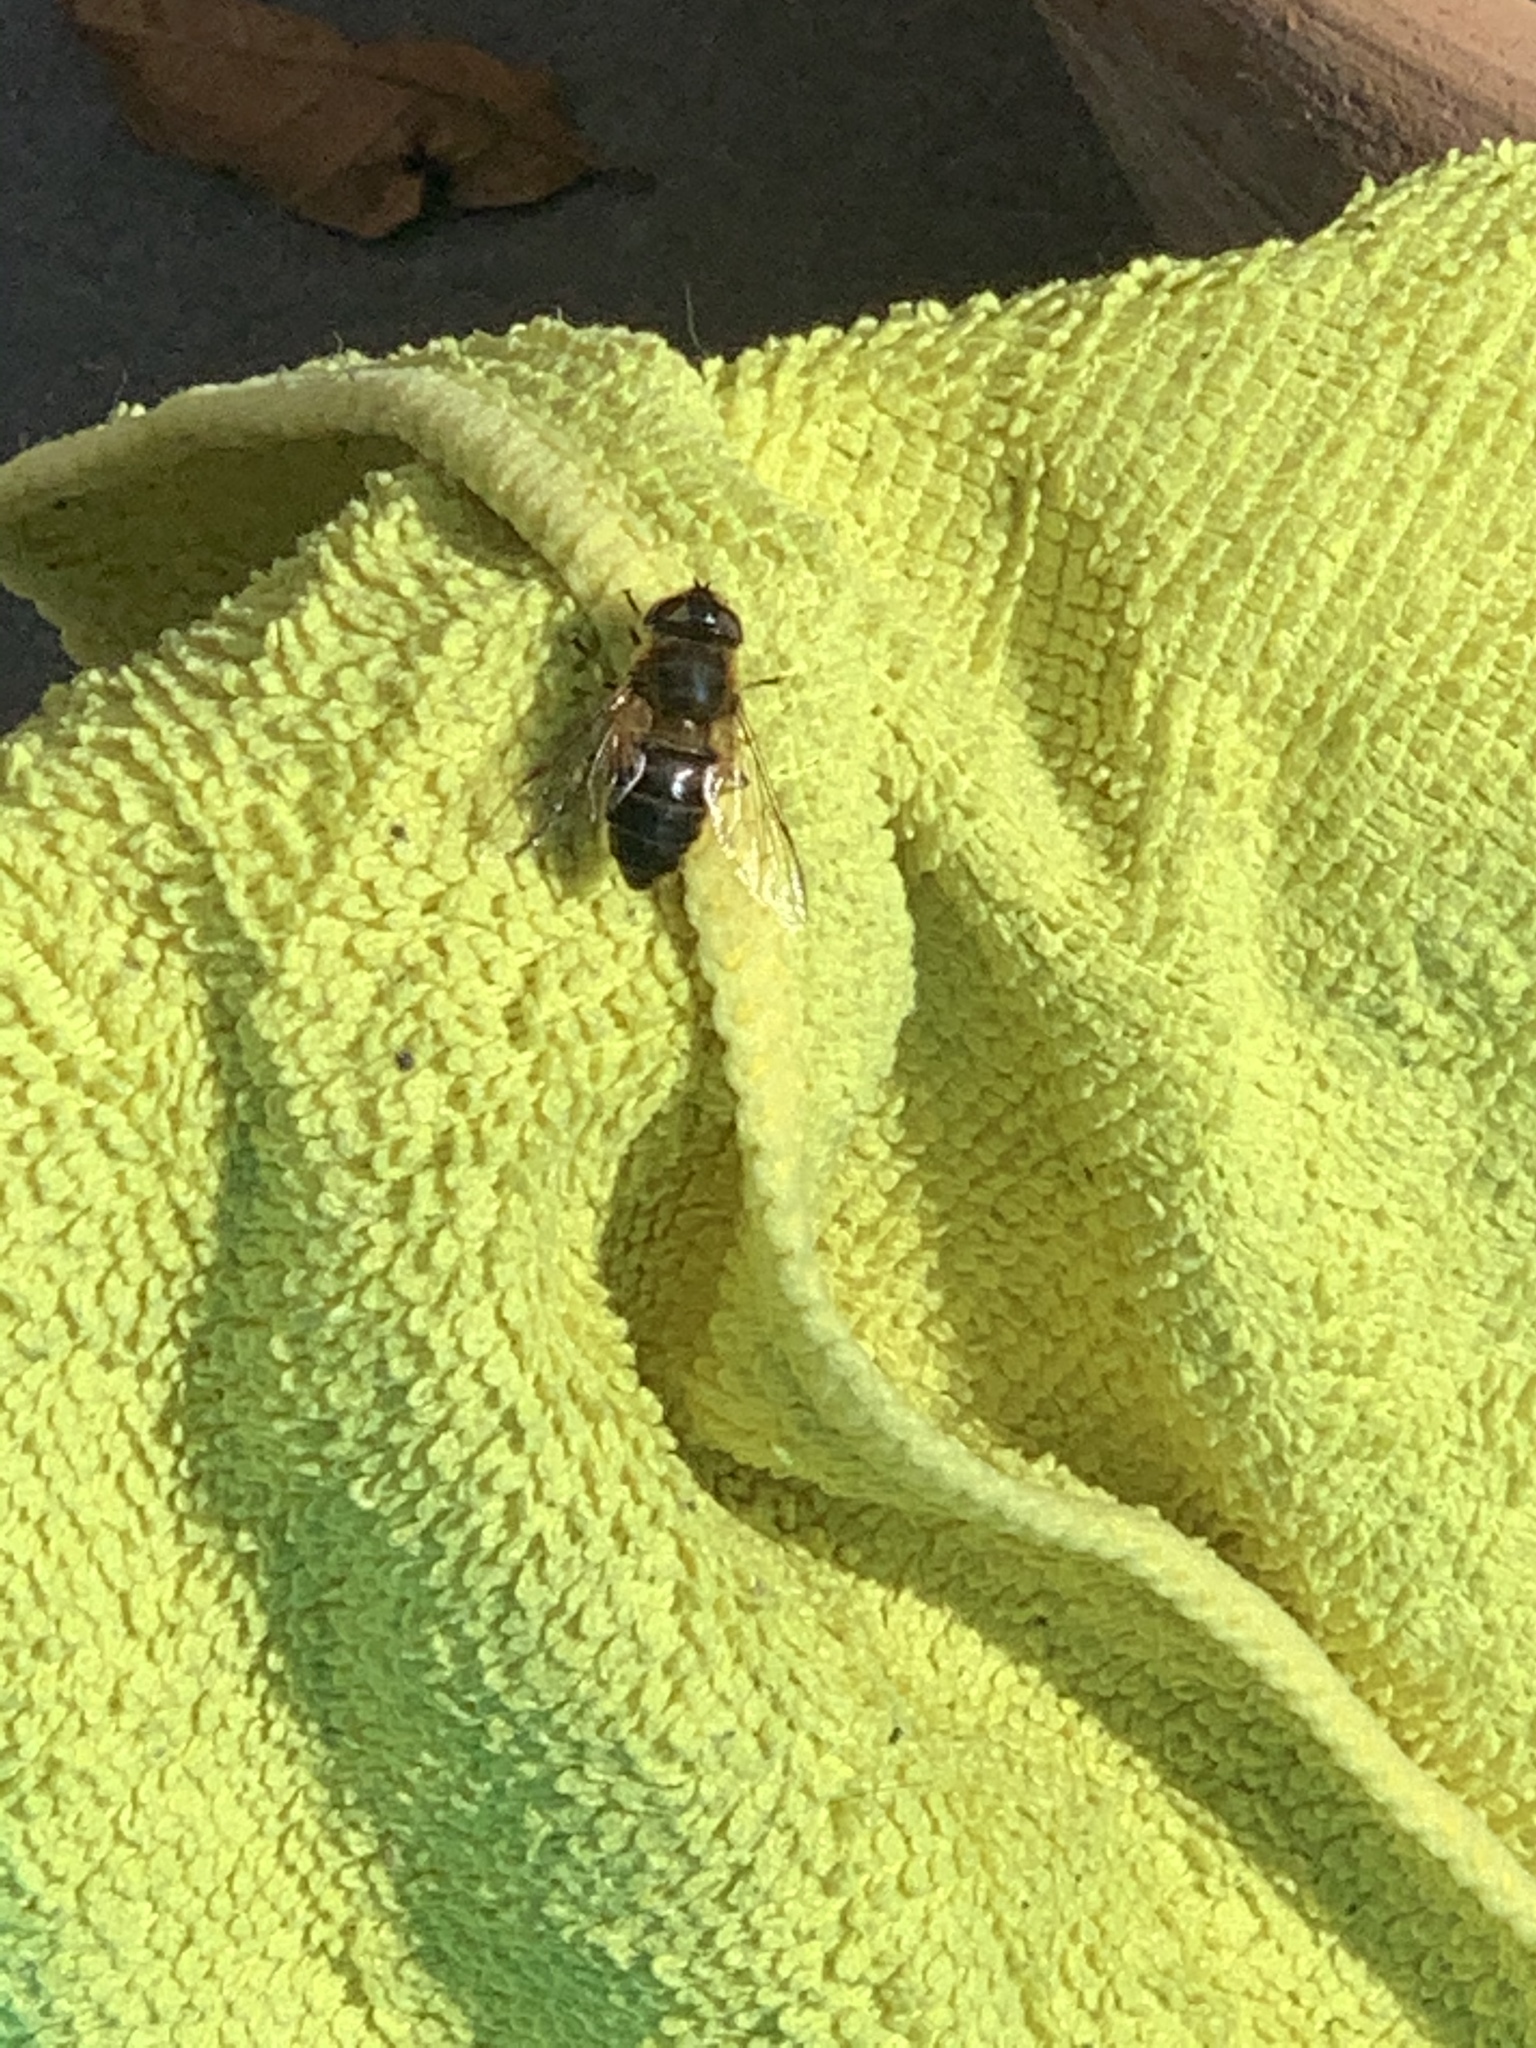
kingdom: Animalia
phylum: Arthropoda
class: Insecta
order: Diptera
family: Syrphidae
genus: Eristalis
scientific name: Eristalis
